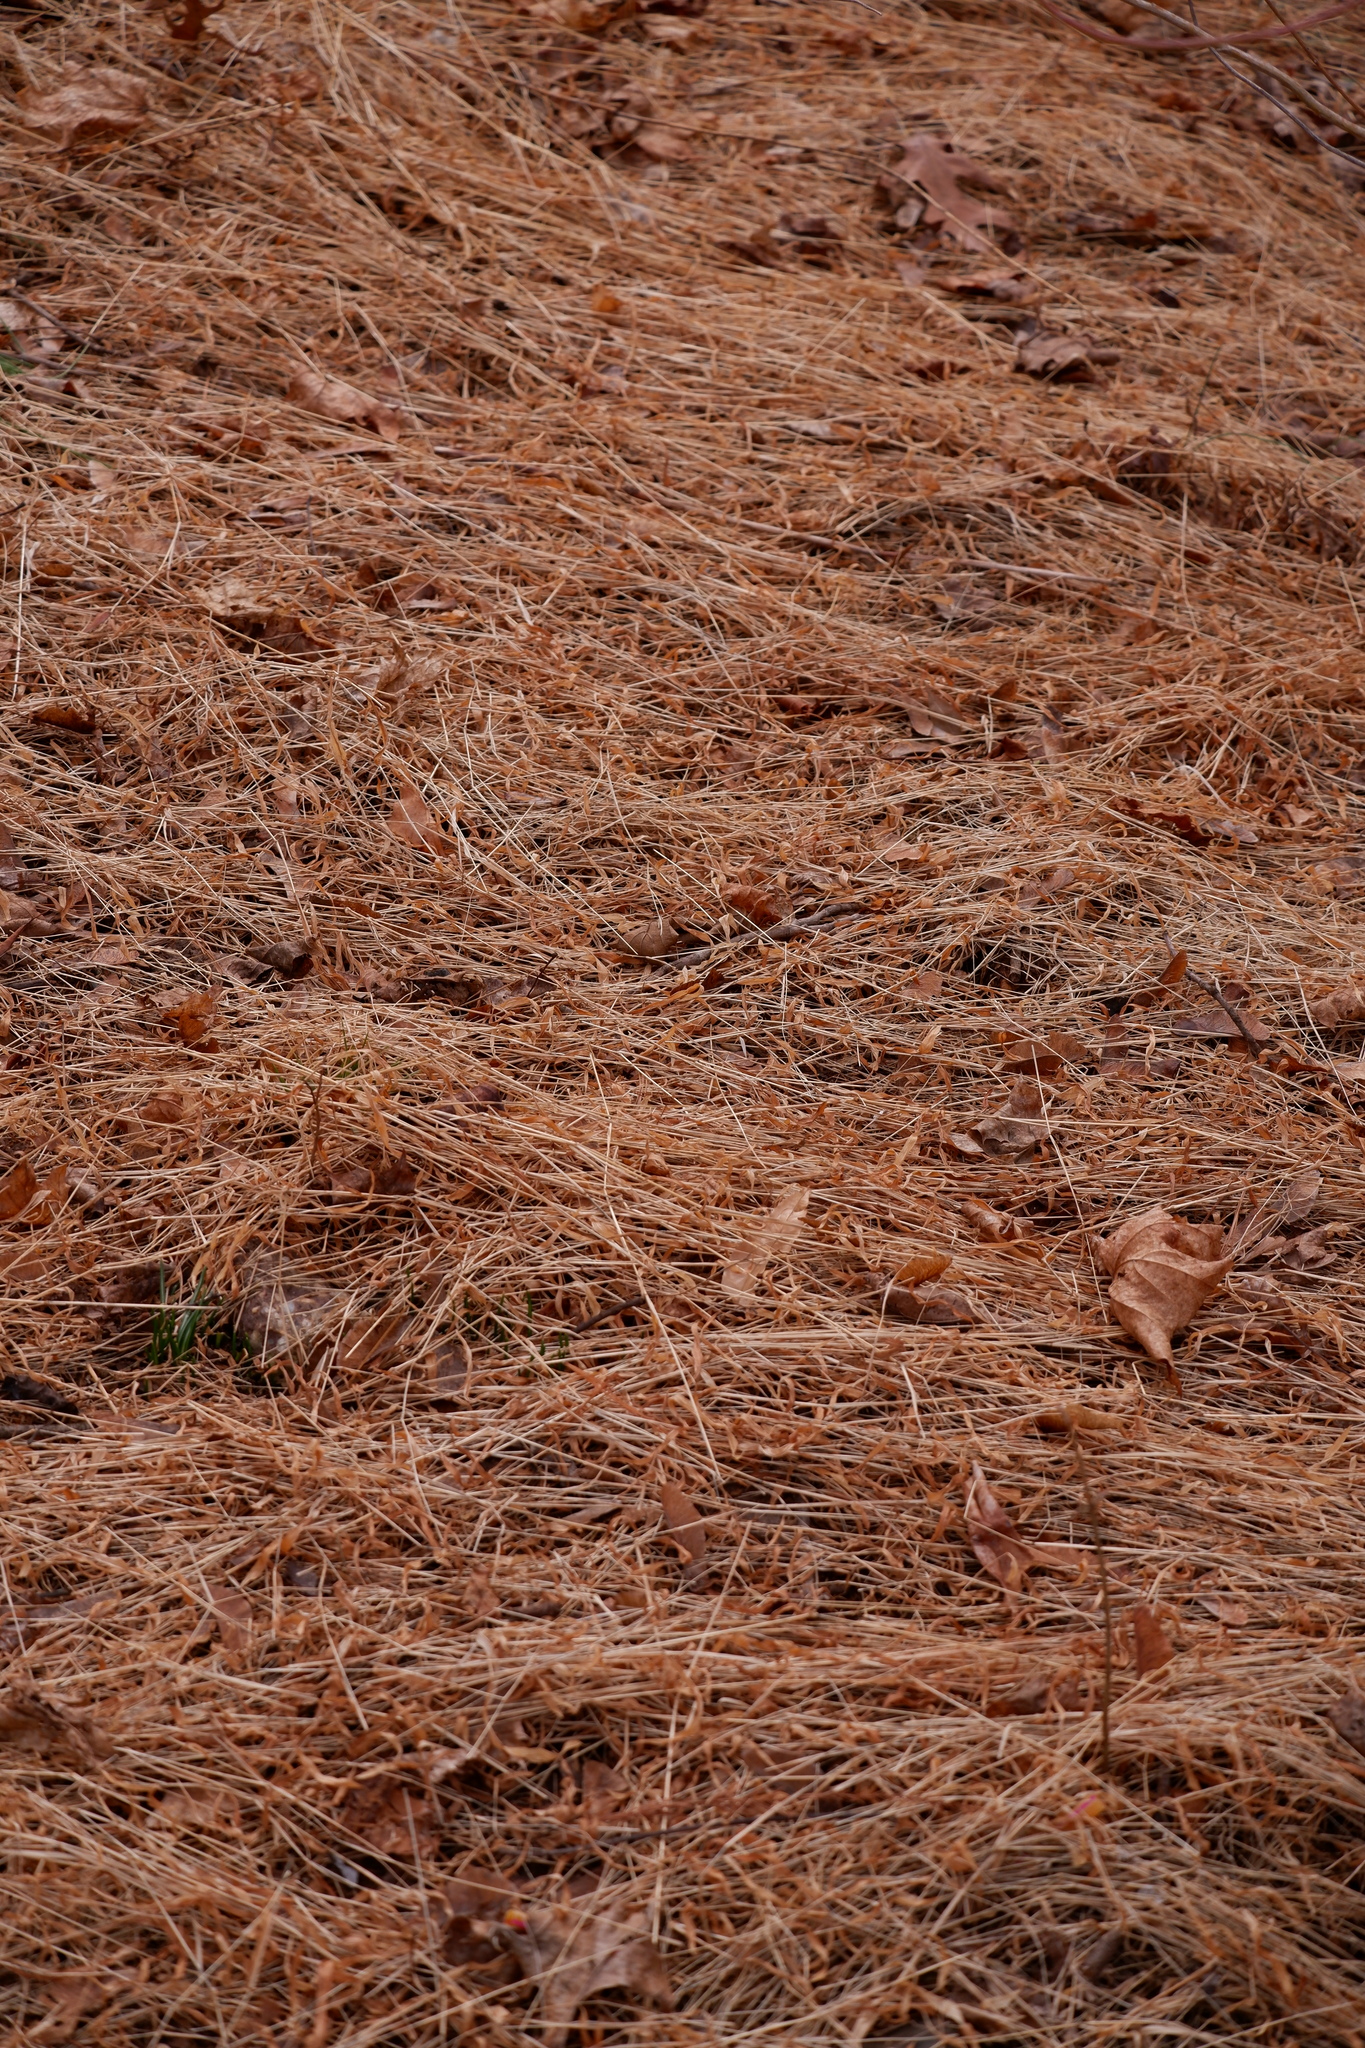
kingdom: Plantae
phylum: Tracheophyta
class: Liliopsida
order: Poales
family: Poaceae
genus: Microstegium
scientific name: Microstegium vimineum
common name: Japanese stiltgrass
